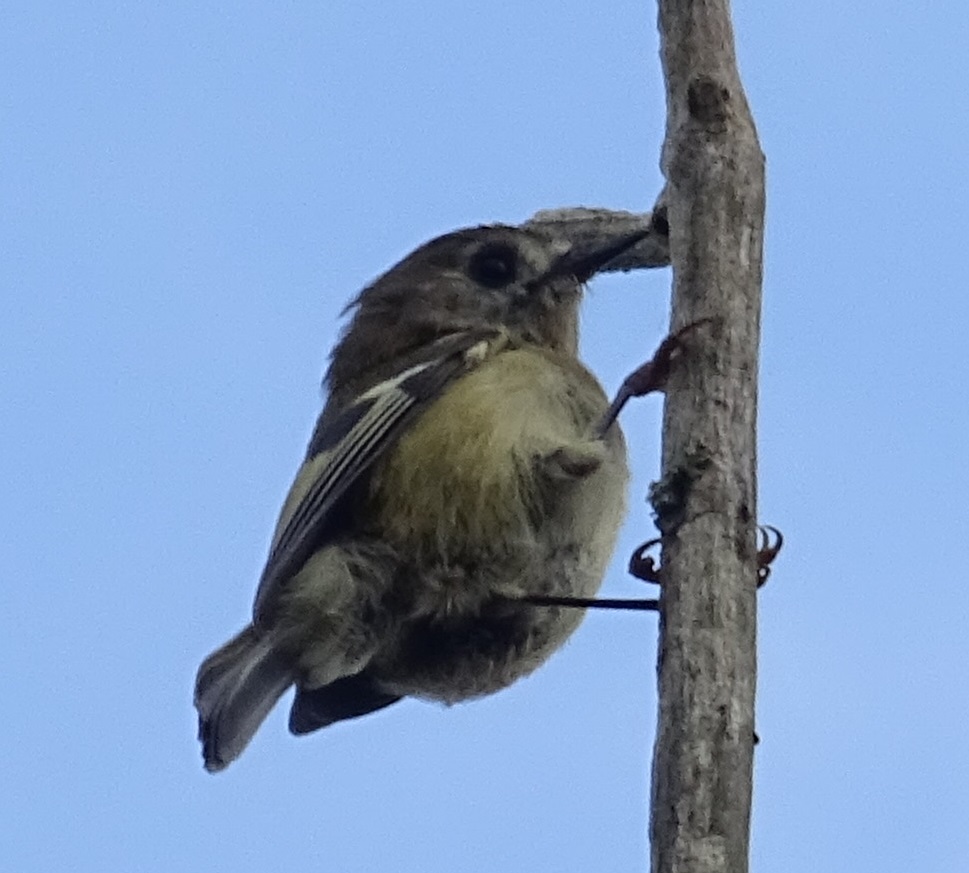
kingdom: Animalia
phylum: Chordata
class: Aves
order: Passeriformes
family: Regulidae
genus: Regulus
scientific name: Regulus regulus
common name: Goldcrest
